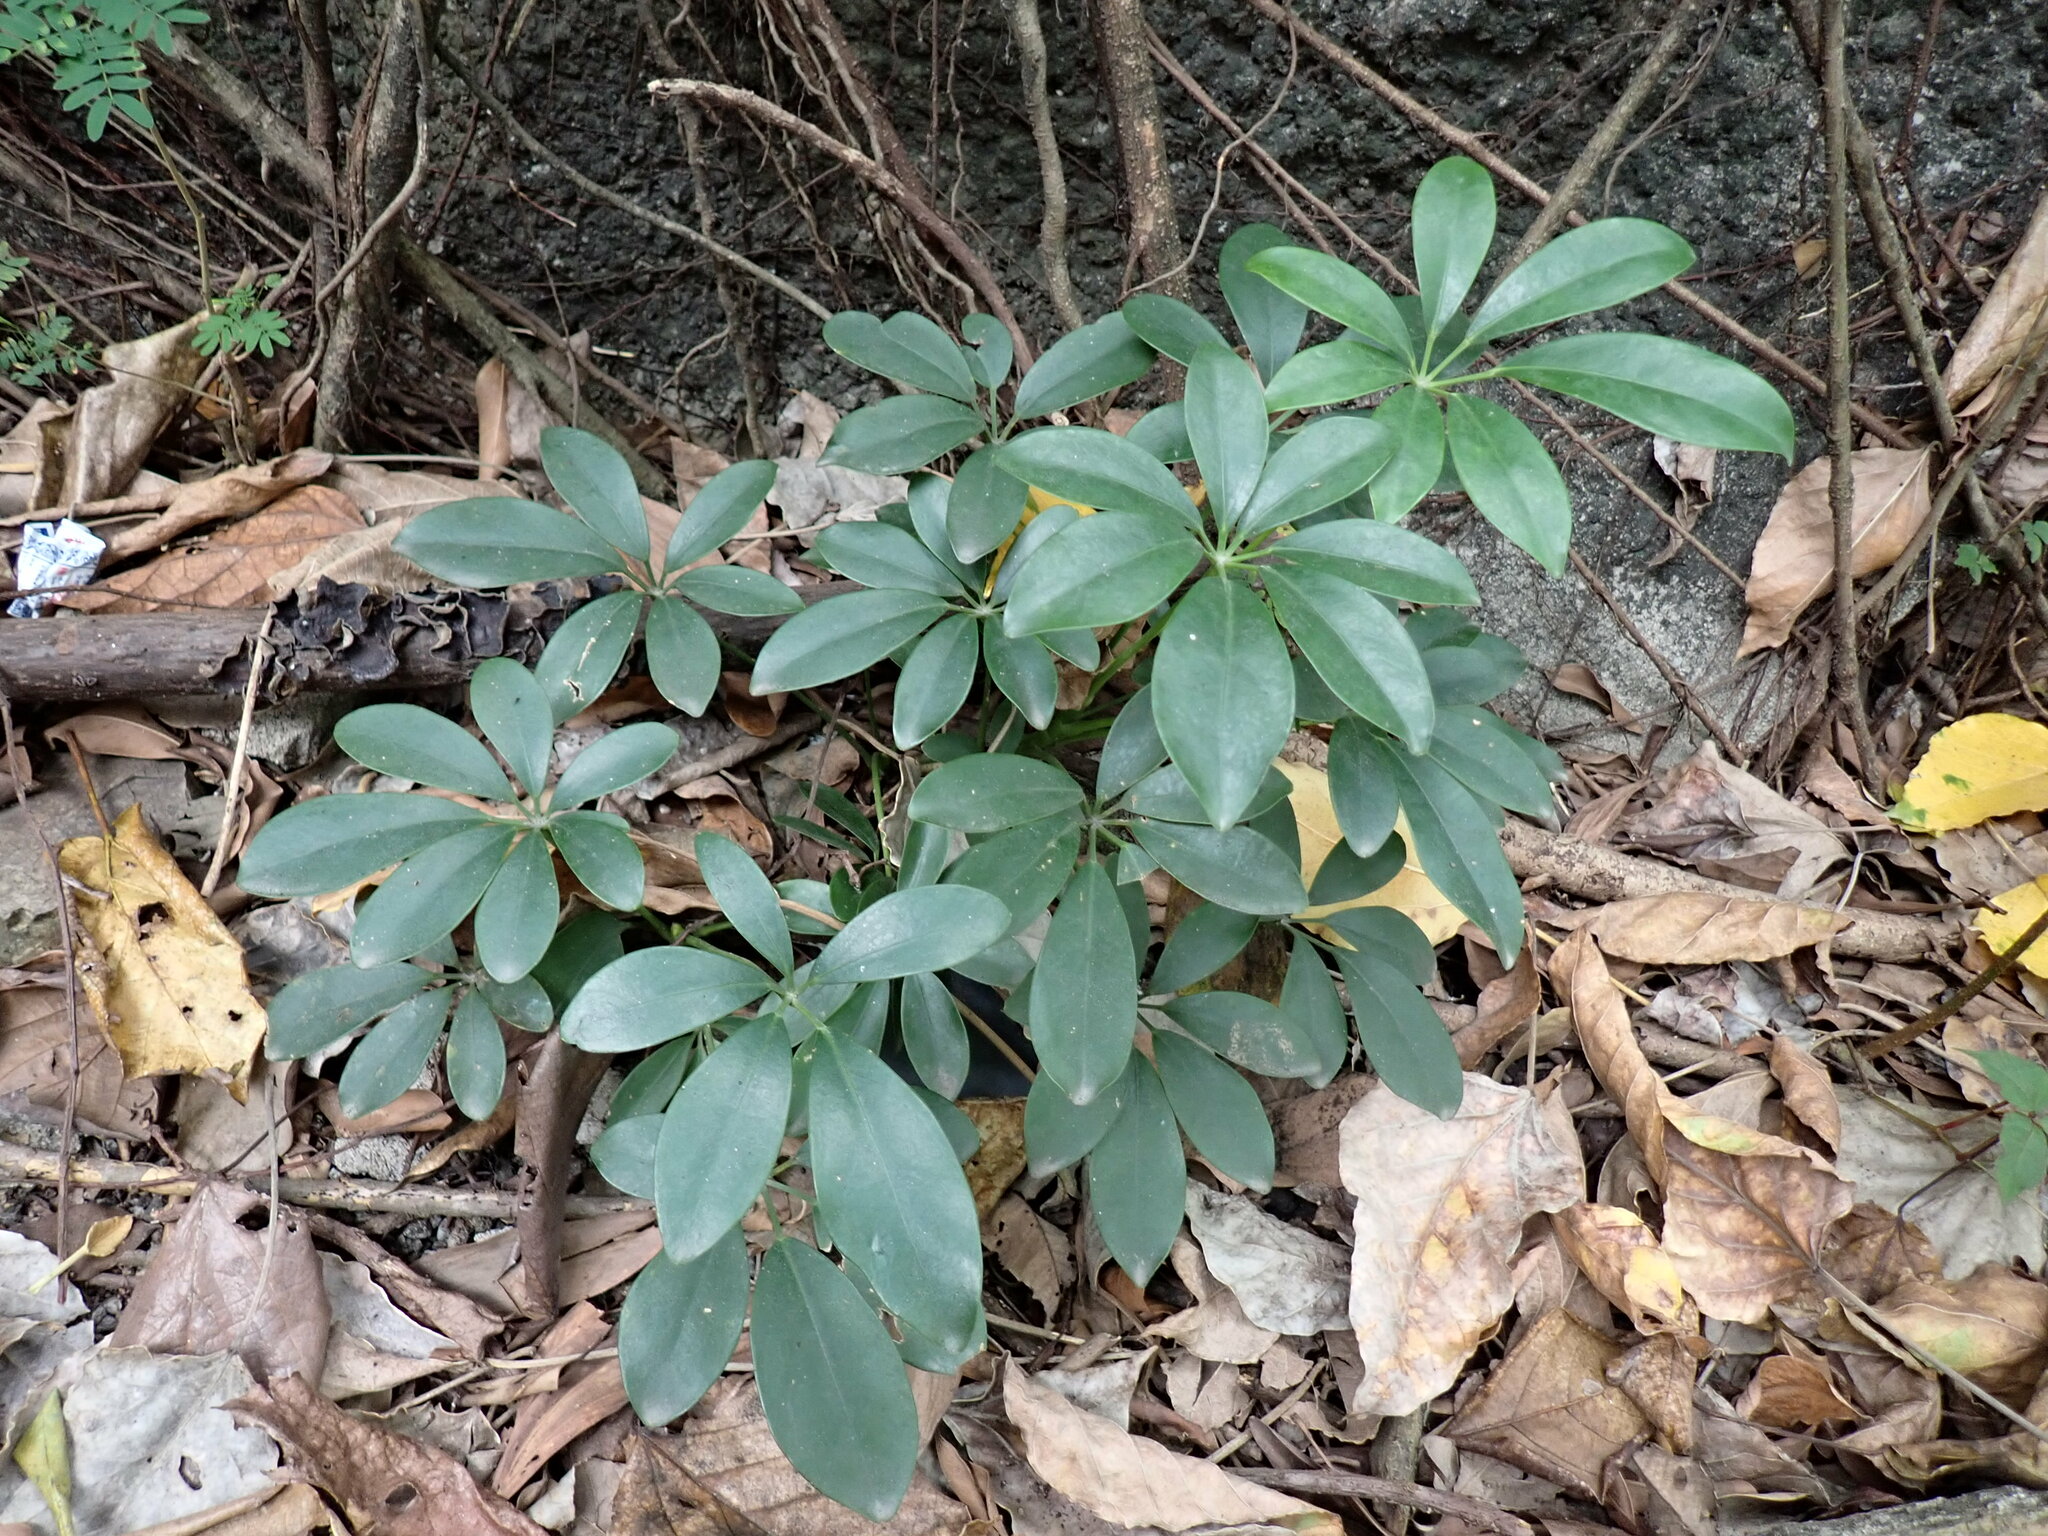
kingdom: Plantae
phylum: Tracheophyta
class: Magnoliopsida
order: Apiales
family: Araliaceae
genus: Heptapleurum
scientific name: Heptapleurum arboricola
